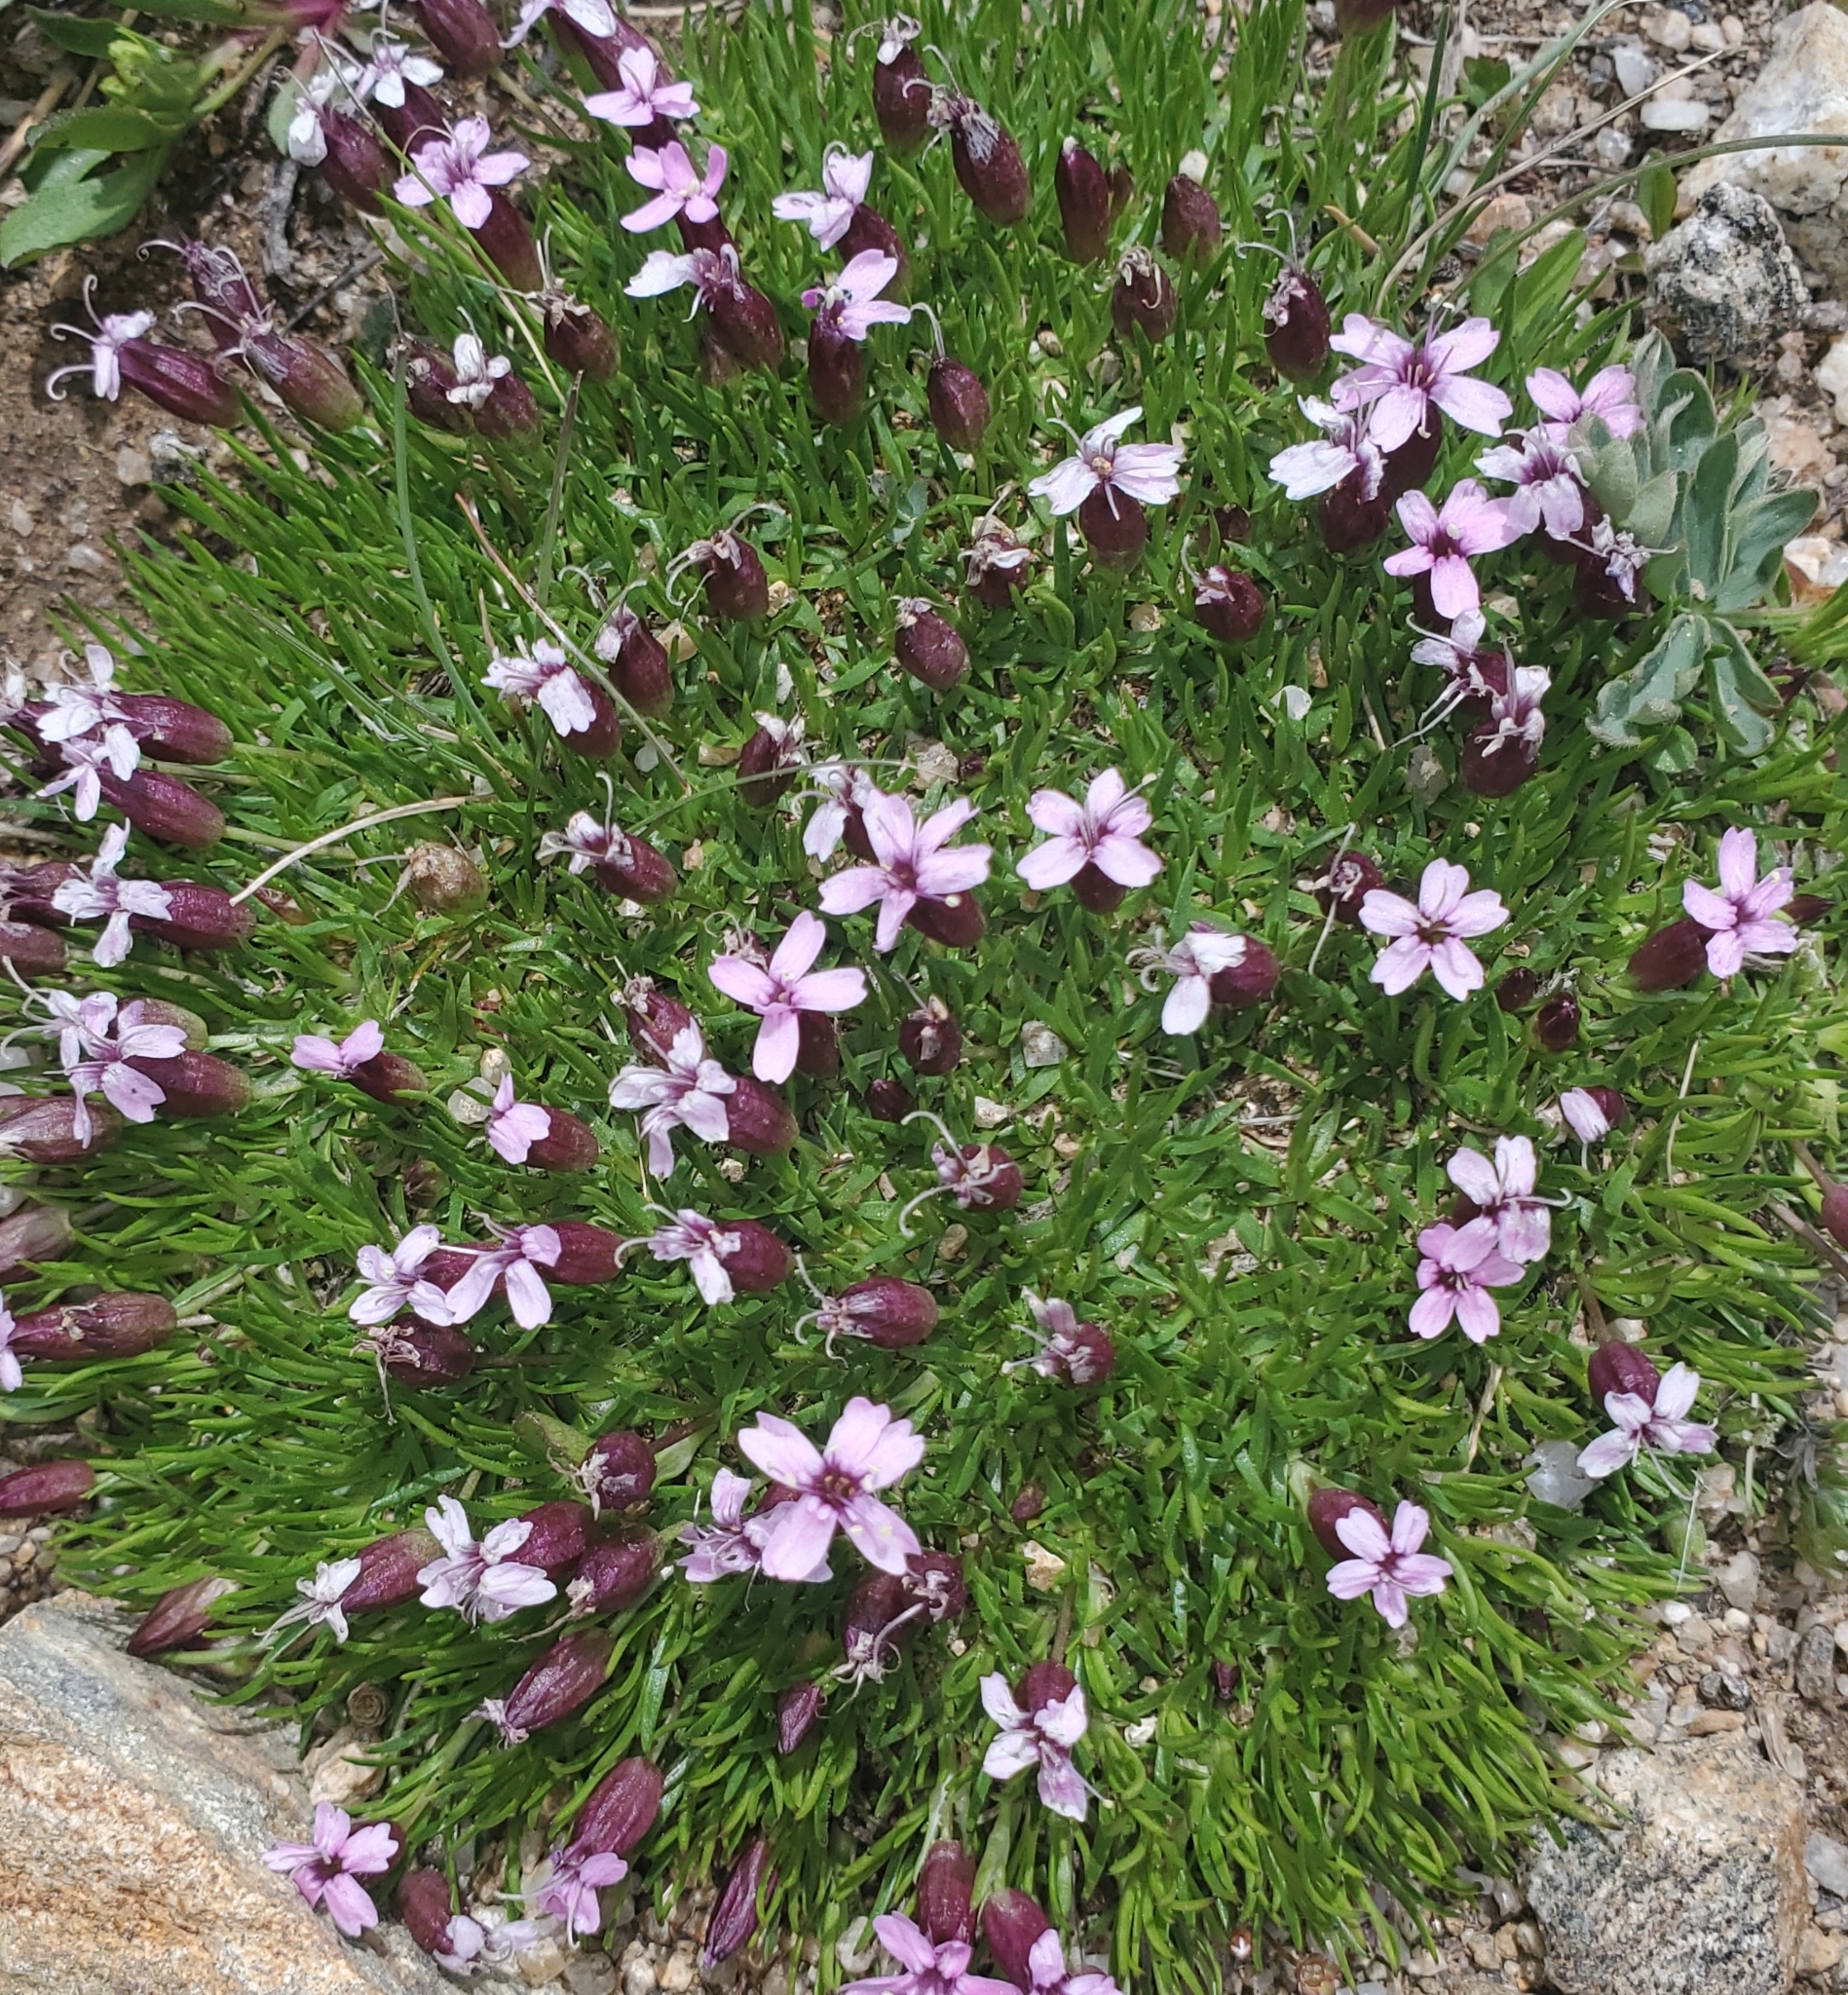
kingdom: Plantae
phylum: Tracheophyta
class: Magnoliopsida
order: Caryophyllales
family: Caryophyllaceae
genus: Silene
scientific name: Silene acaulis
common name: Moss campion
